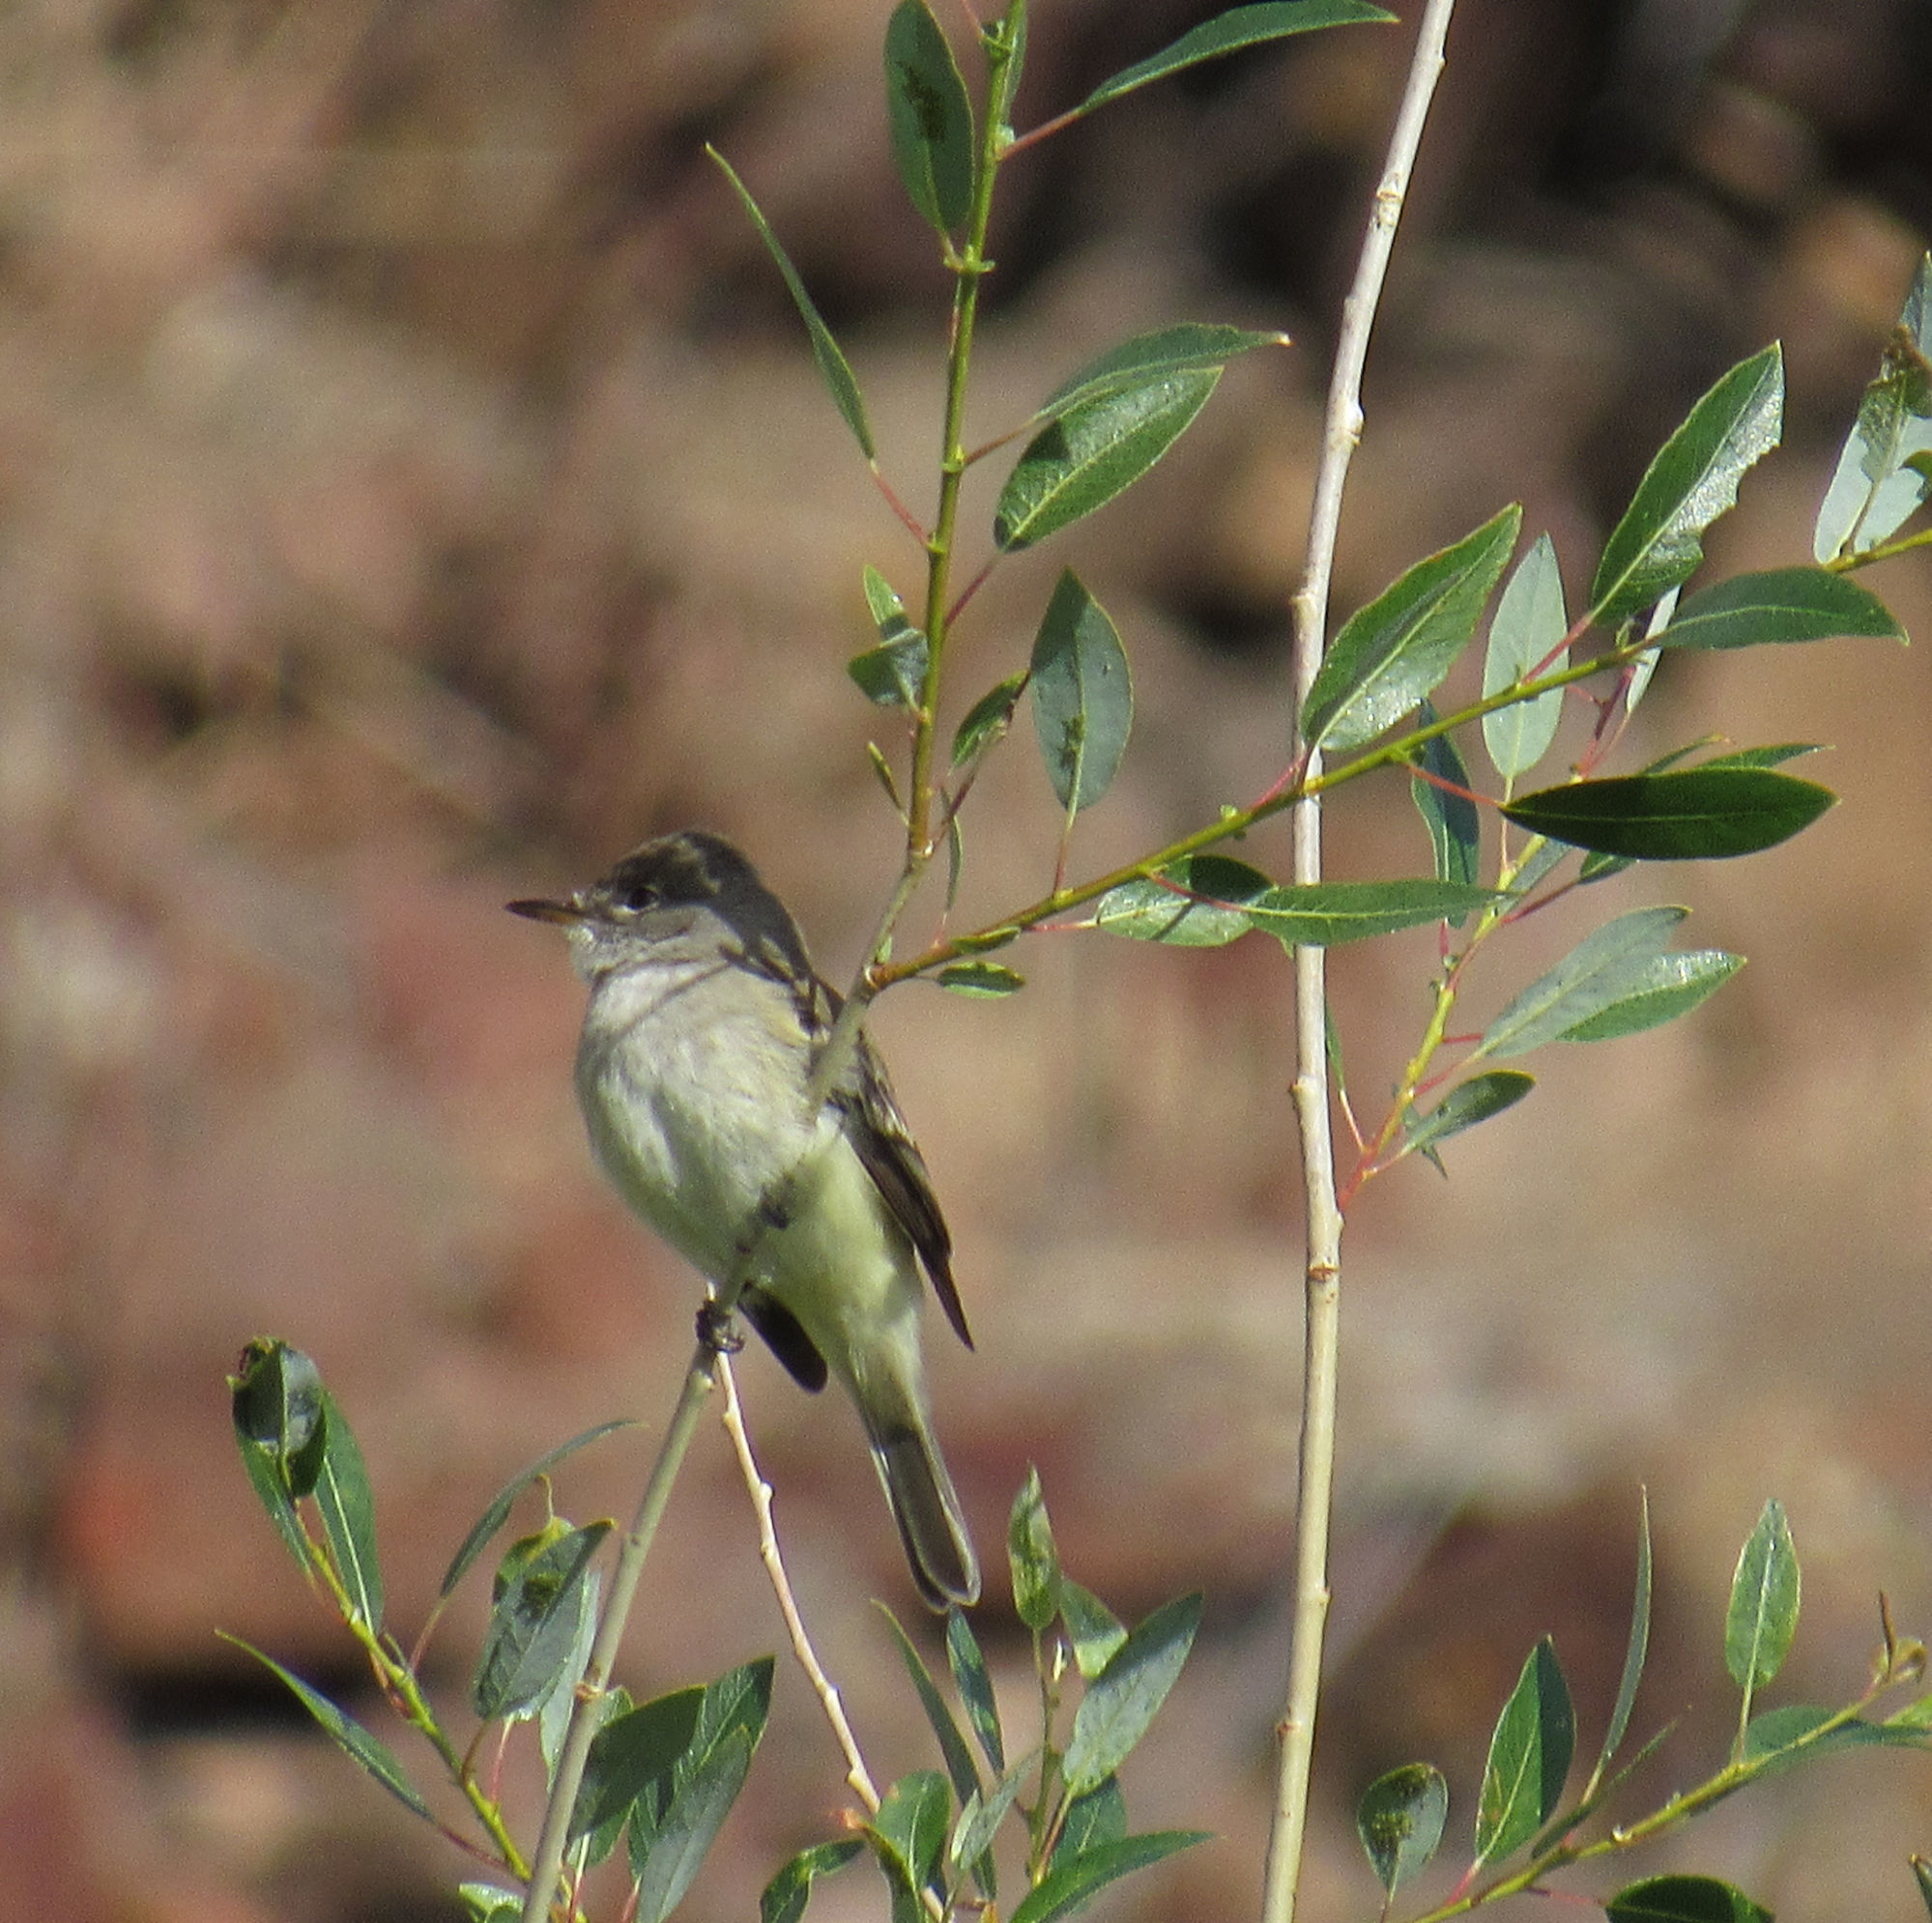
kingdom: Animalia
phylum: Chordata
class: Aves
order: Passeriformes
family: Tyrannidae
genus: Empidonax
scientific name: Empidonax traillii
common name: Willow flycatcher
